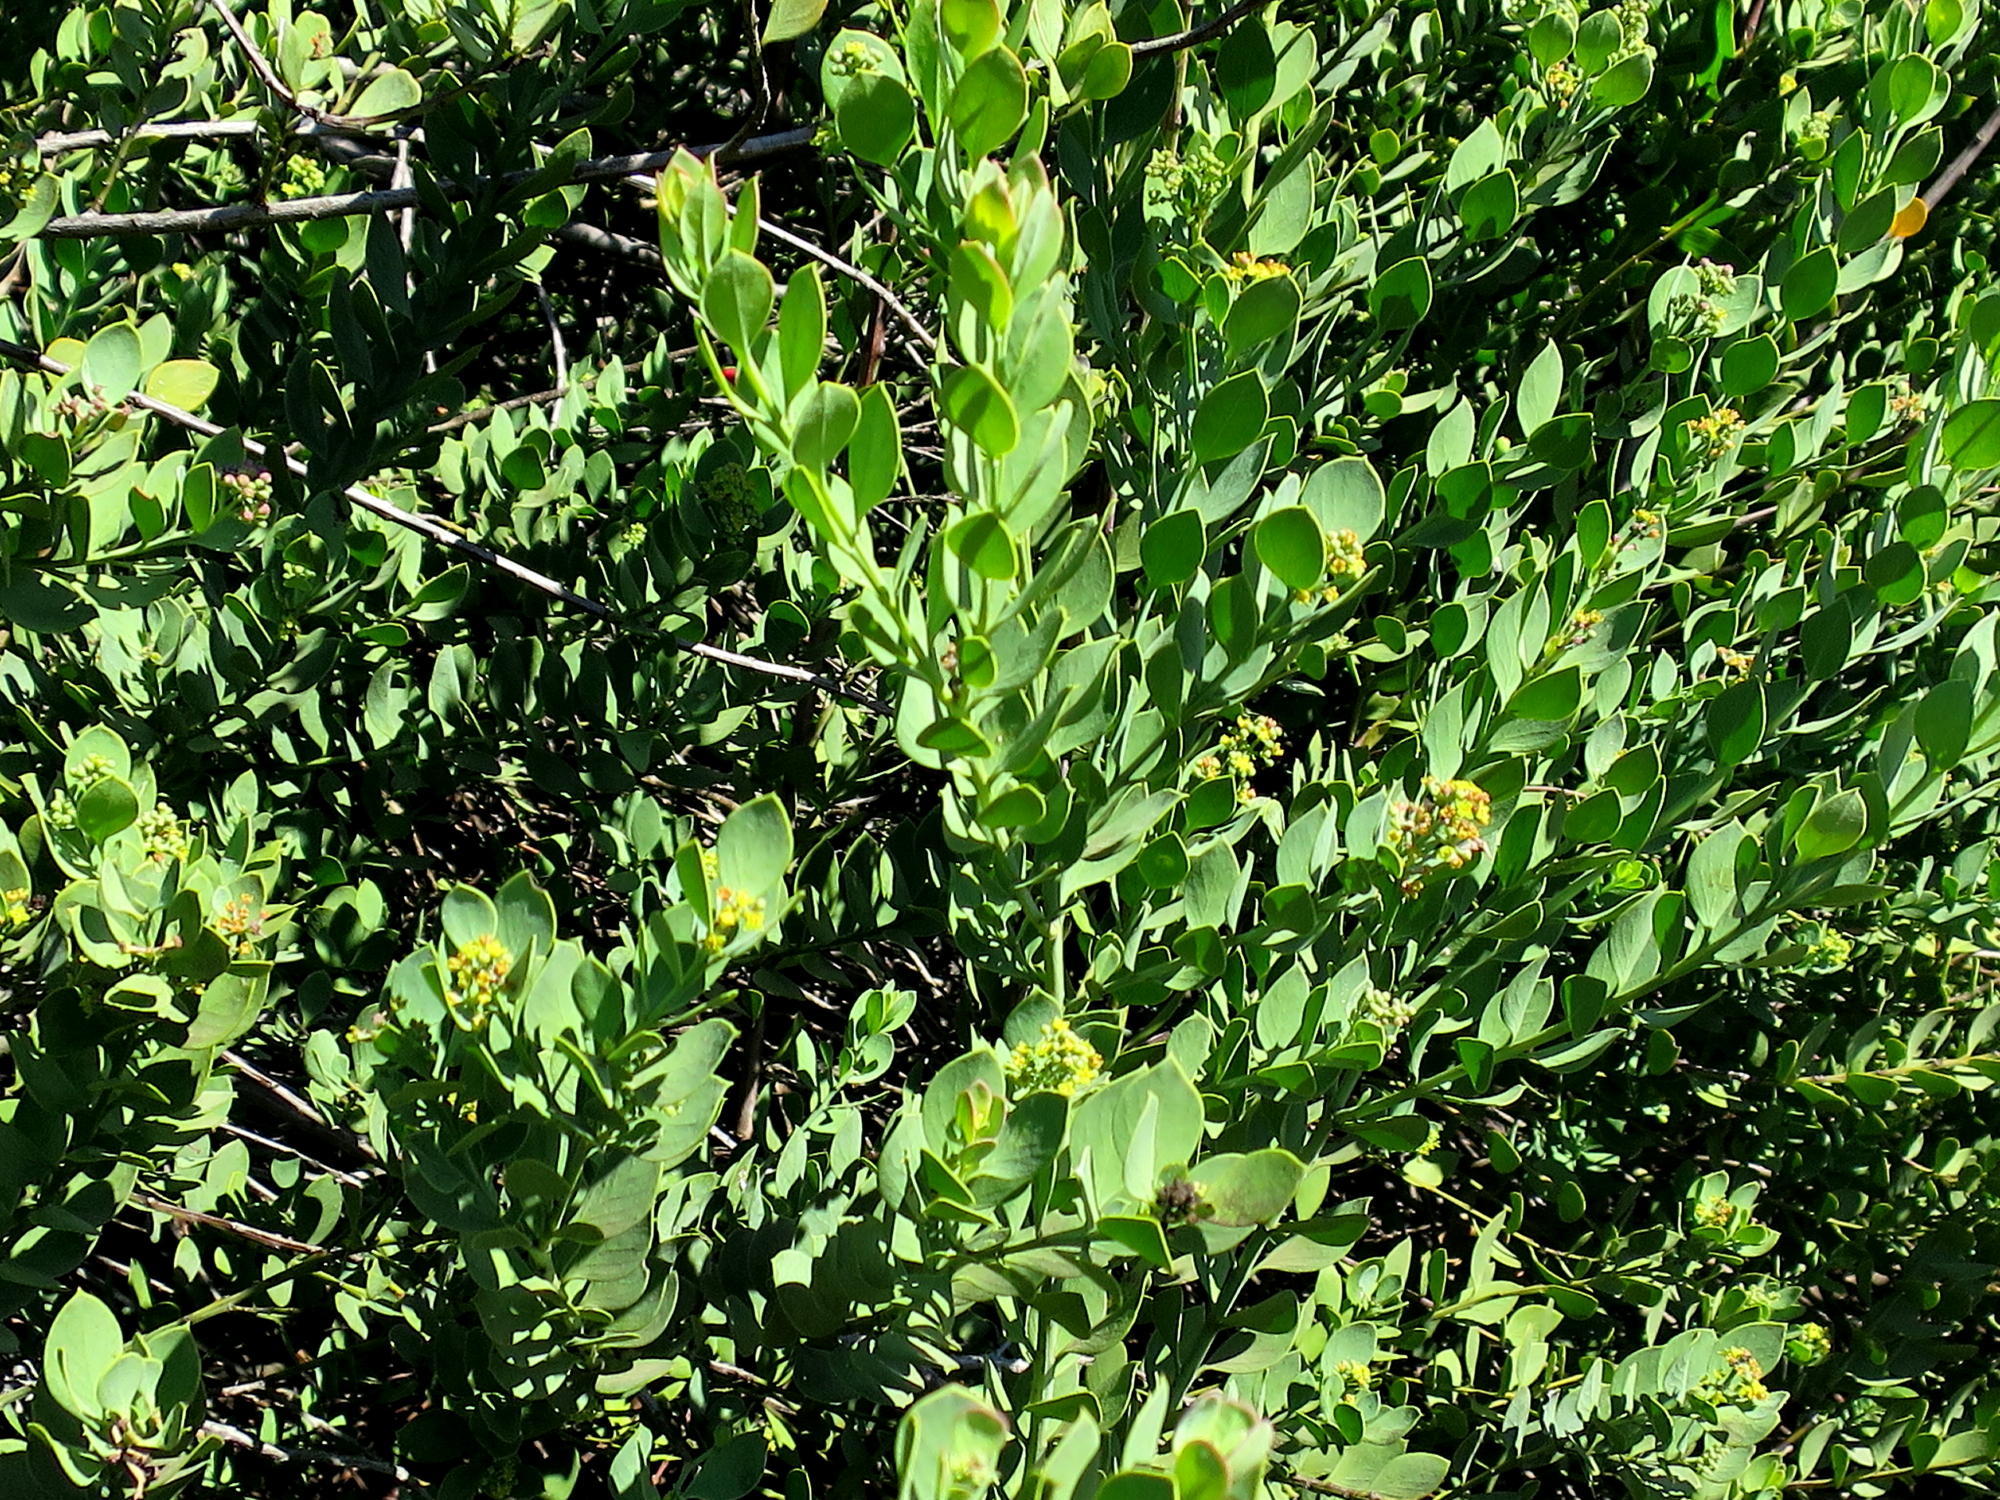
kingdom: Plantae
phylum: Tracheophyta
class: Magnoliopsida
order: Santalales
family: Santalaceae
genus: Osyris
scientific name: Osyris compressa
